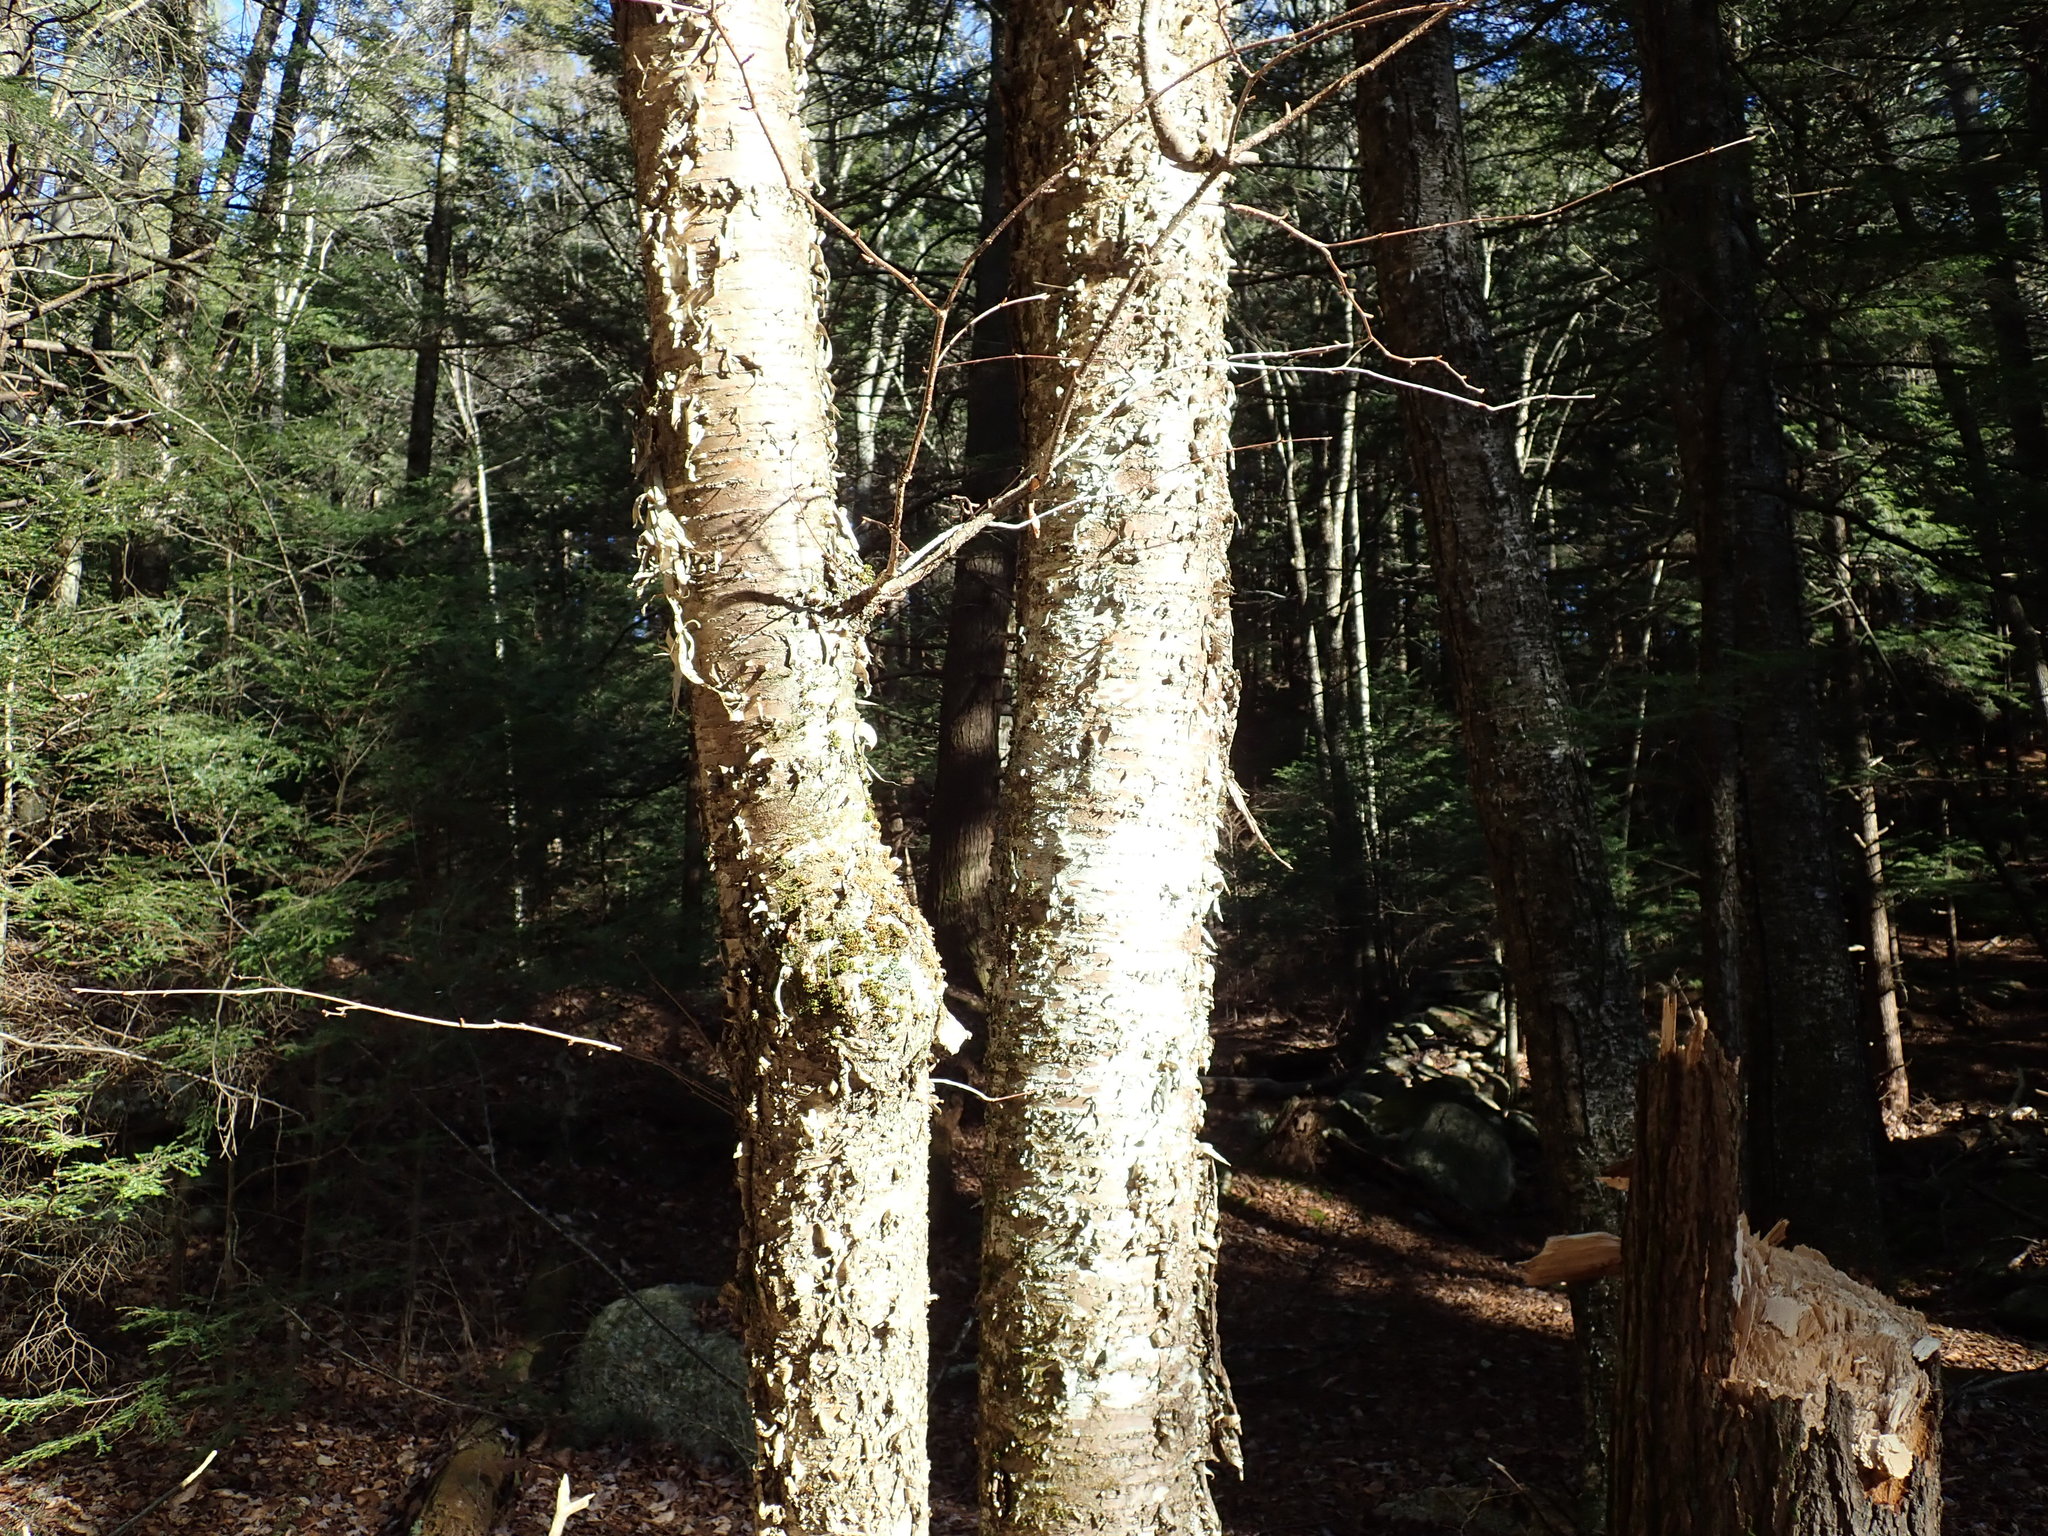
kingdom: Plantae
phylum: Tracheophyta
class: Magnoliopsida
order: Fagales
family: Betulaceae
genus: Betula
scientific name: Betula alleghaniensis
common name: Yellow birch
